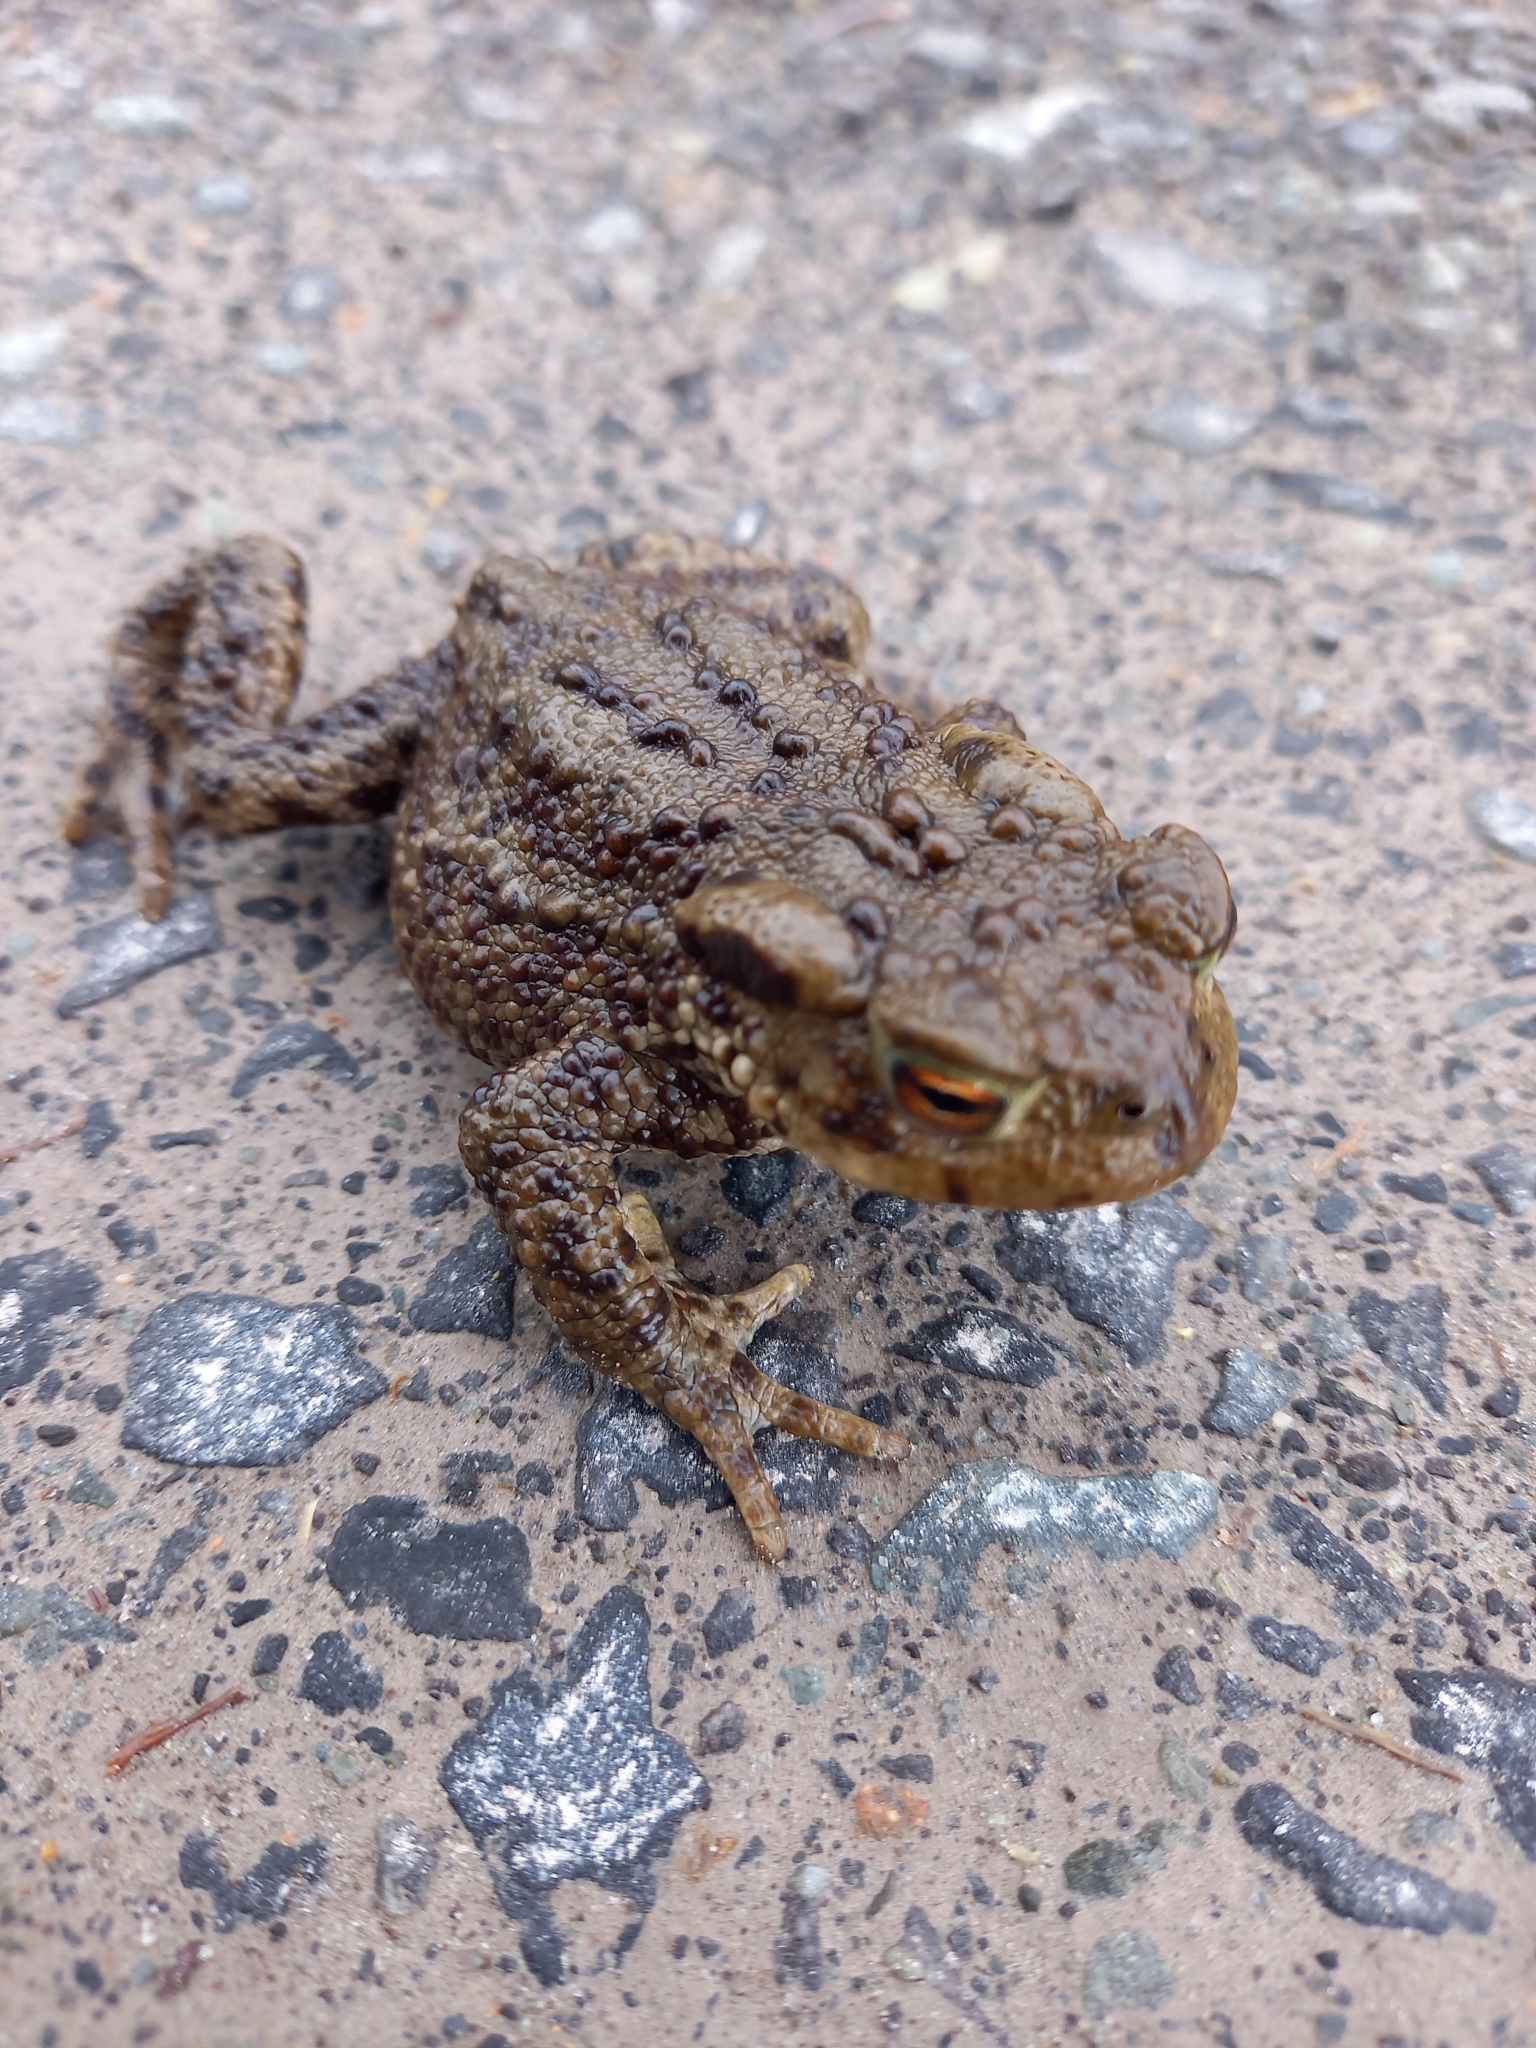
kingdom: Animalia
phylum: Chordata
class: Amphibia
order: Anura
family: Bufonidae
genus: Bufo
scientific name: Bufo bufo
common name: Common toad
